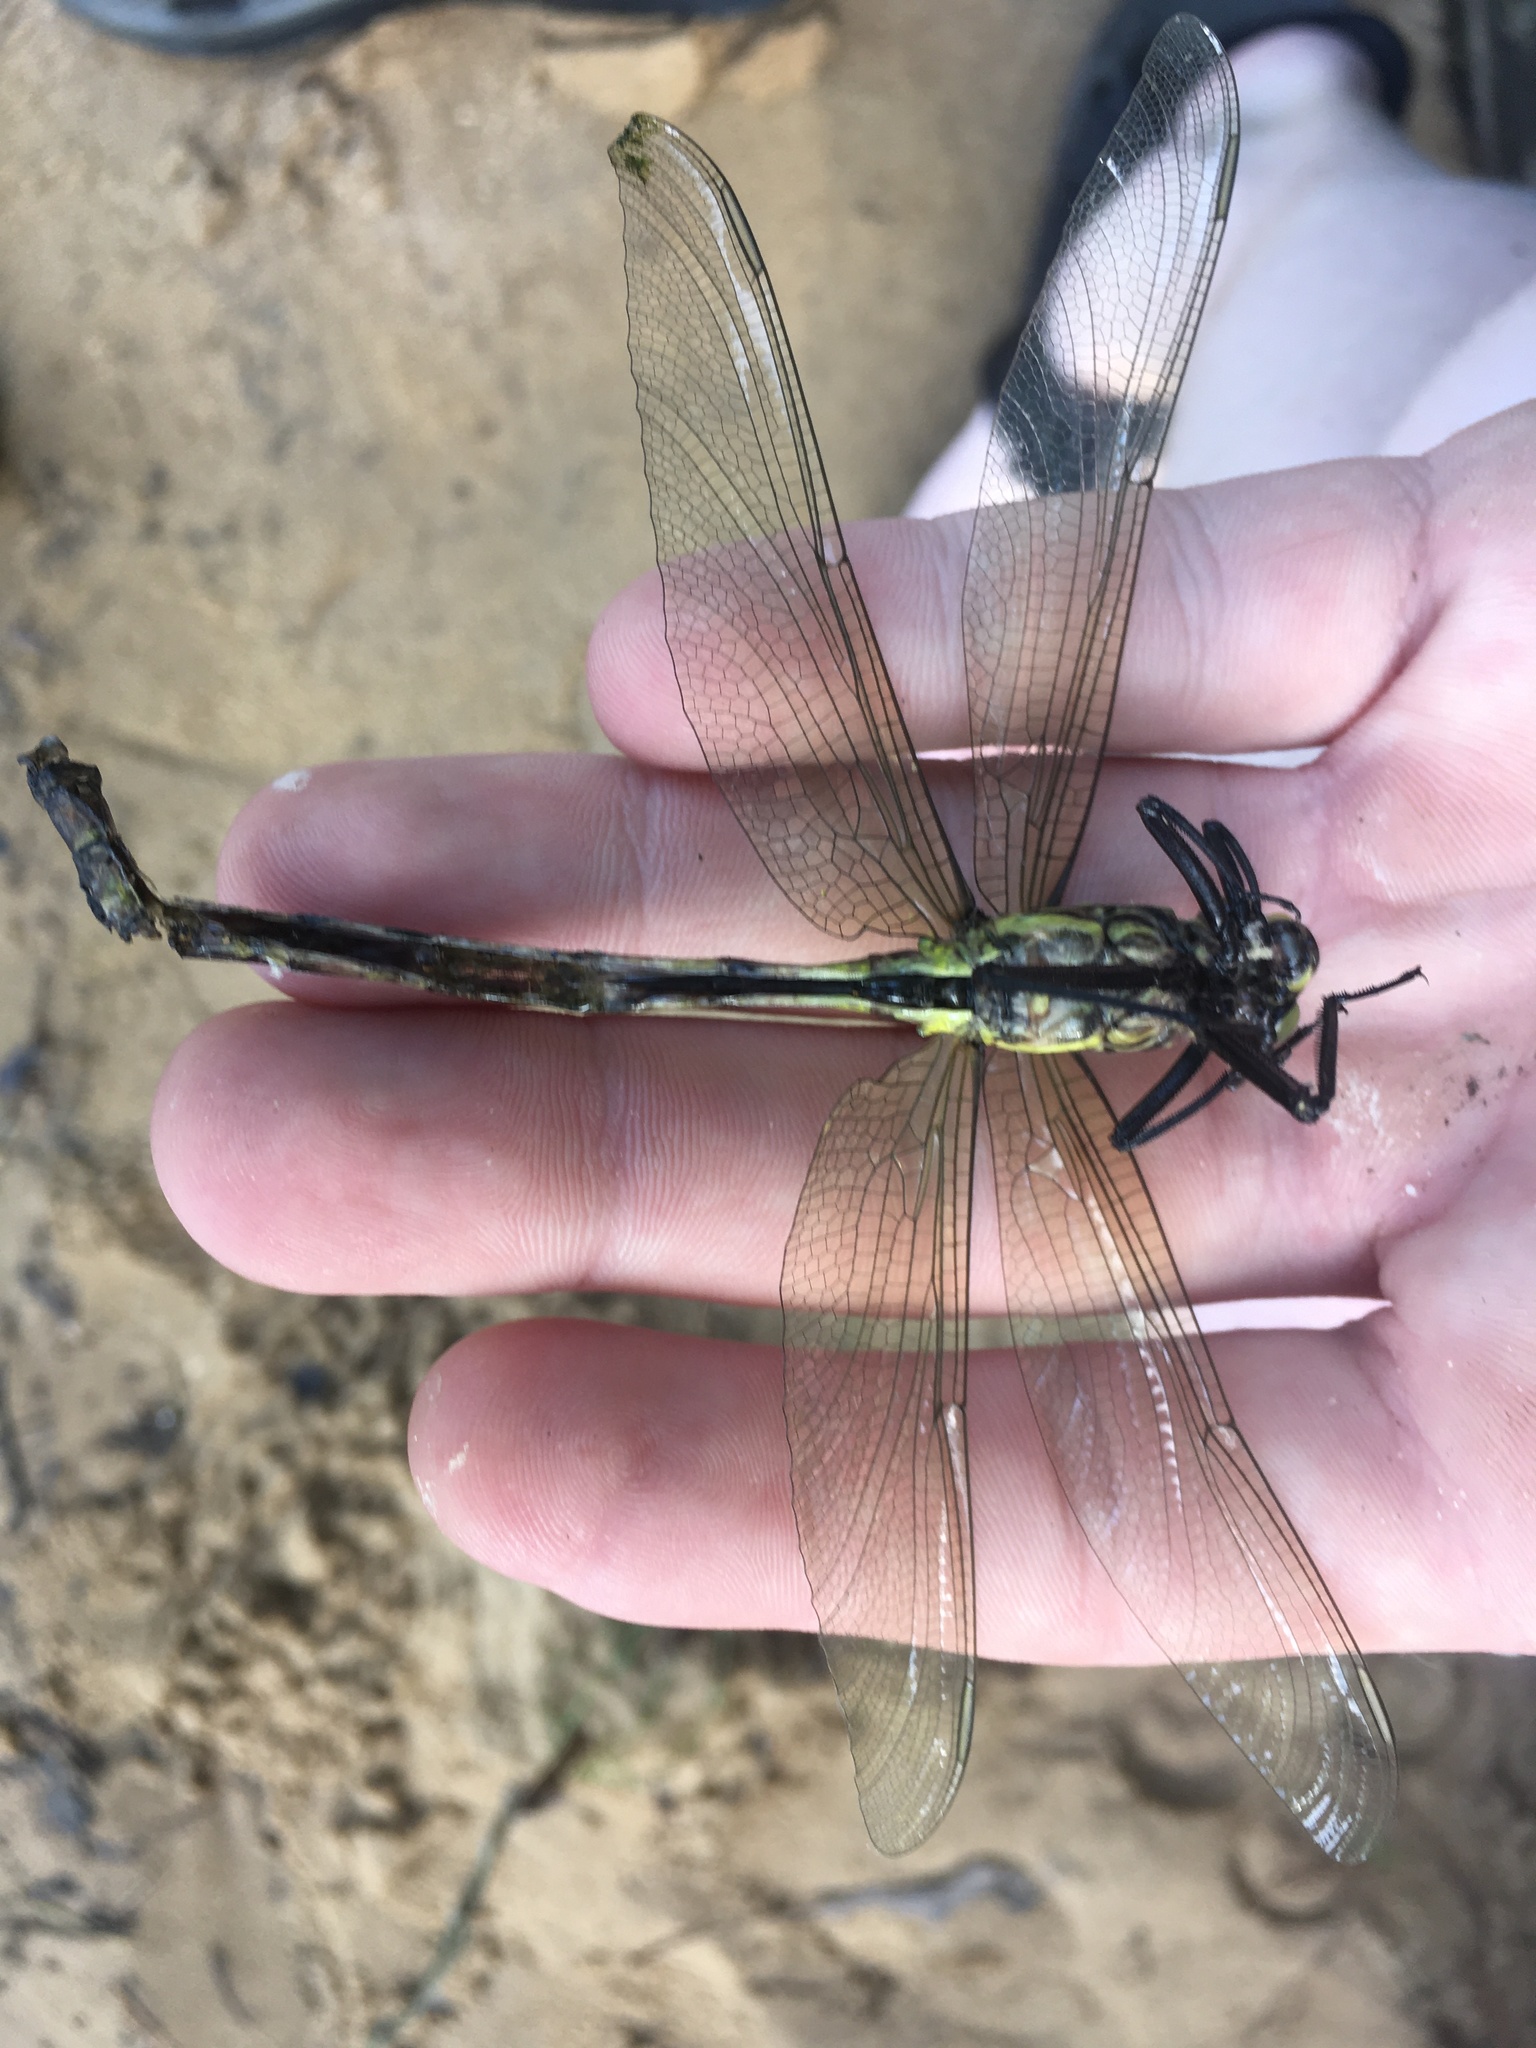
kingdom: Animalia
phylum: Arthropoda
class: Insecta
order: Odonata
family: Gomphidae
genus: Hagenius
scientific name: Hagenius brevistylus
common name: Dragonhunter
